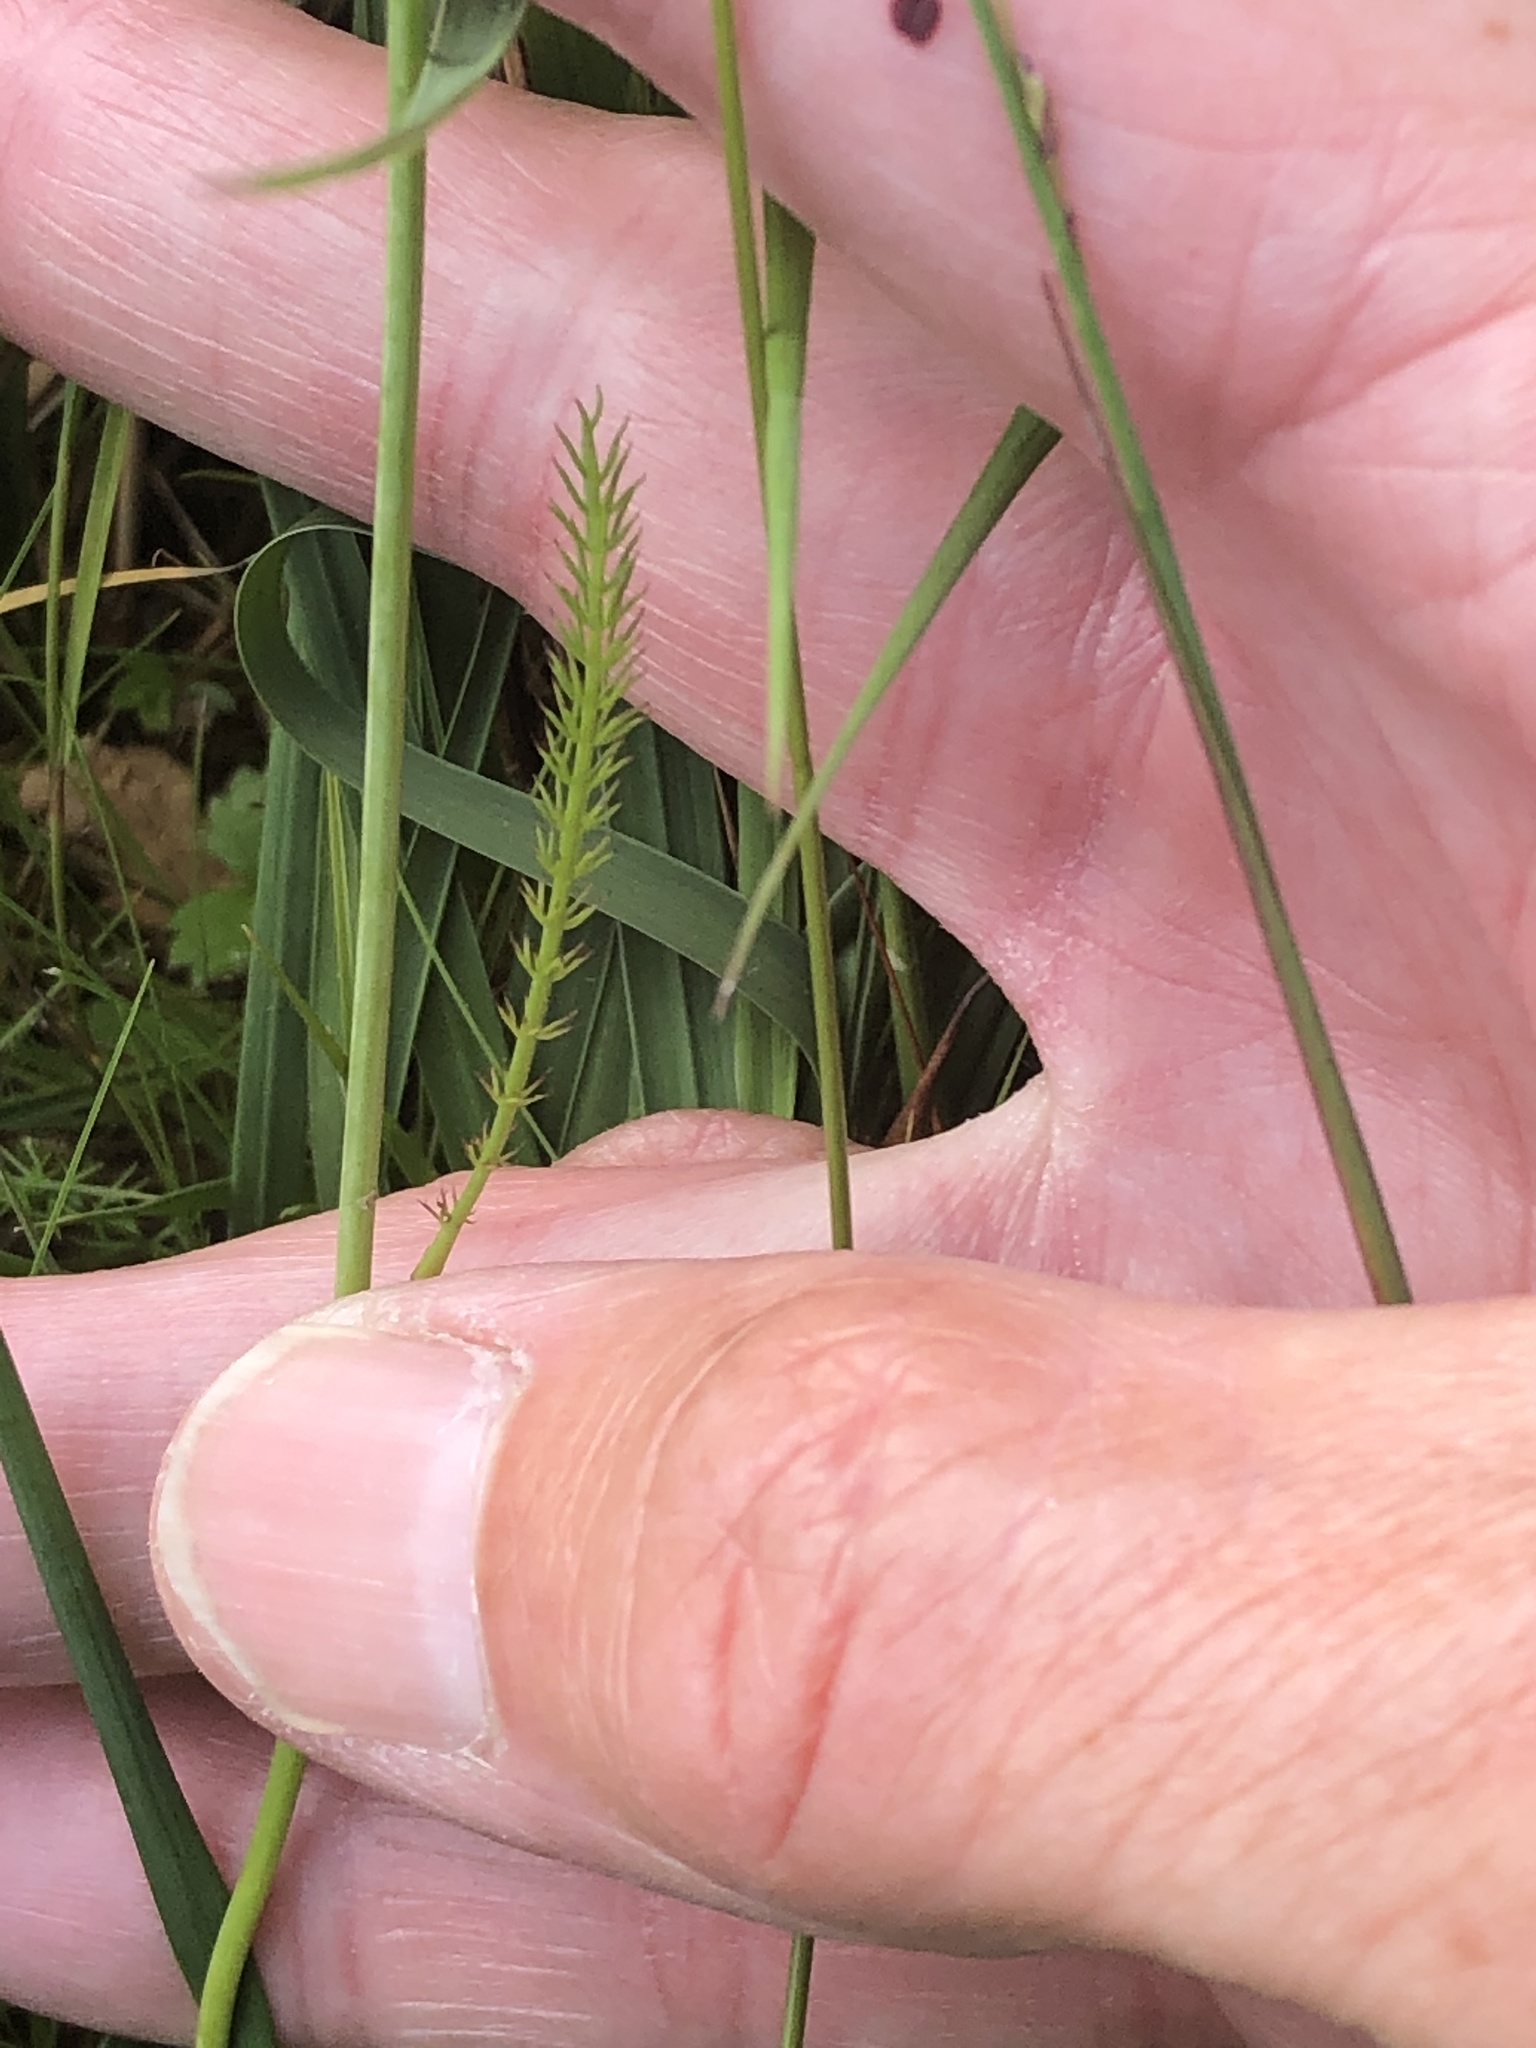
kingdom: Plantae
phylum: Tracheophyta
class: Magnoliopsida
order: Apiales
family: Apiaceae
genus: Trocdaris
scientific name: Trocdaris verticillatum
